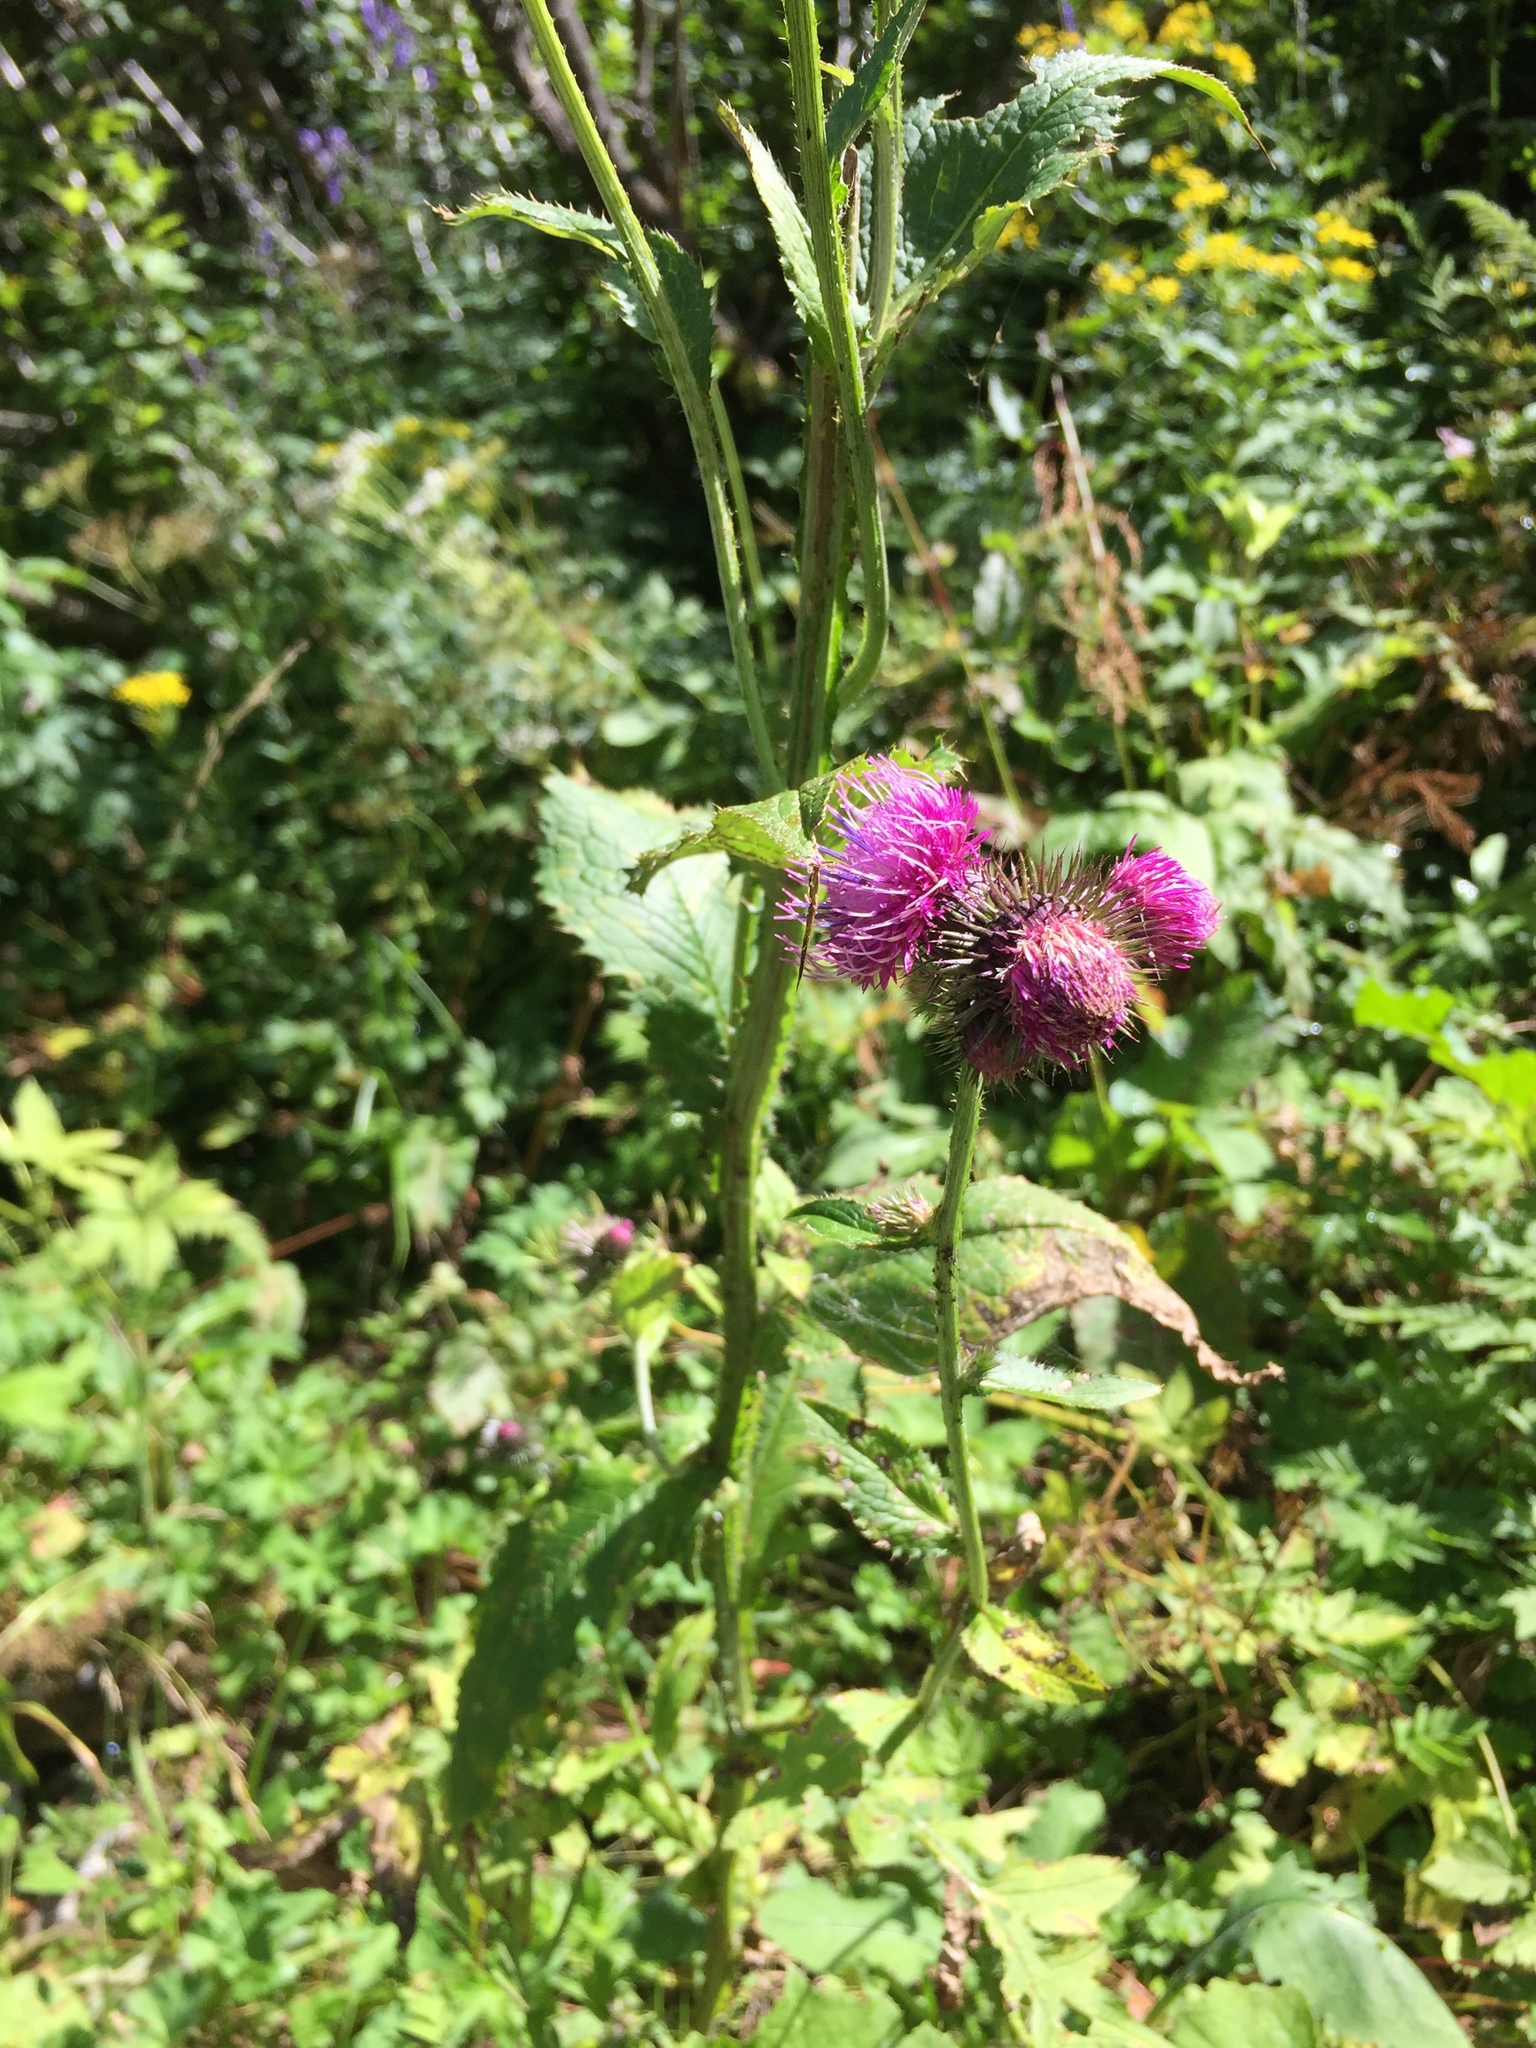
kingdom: Plantae
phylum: Tracheophyta
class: Magnoliopsida
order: Asterales
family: Asteraceae
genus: Carduus
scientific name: Carduus personata
